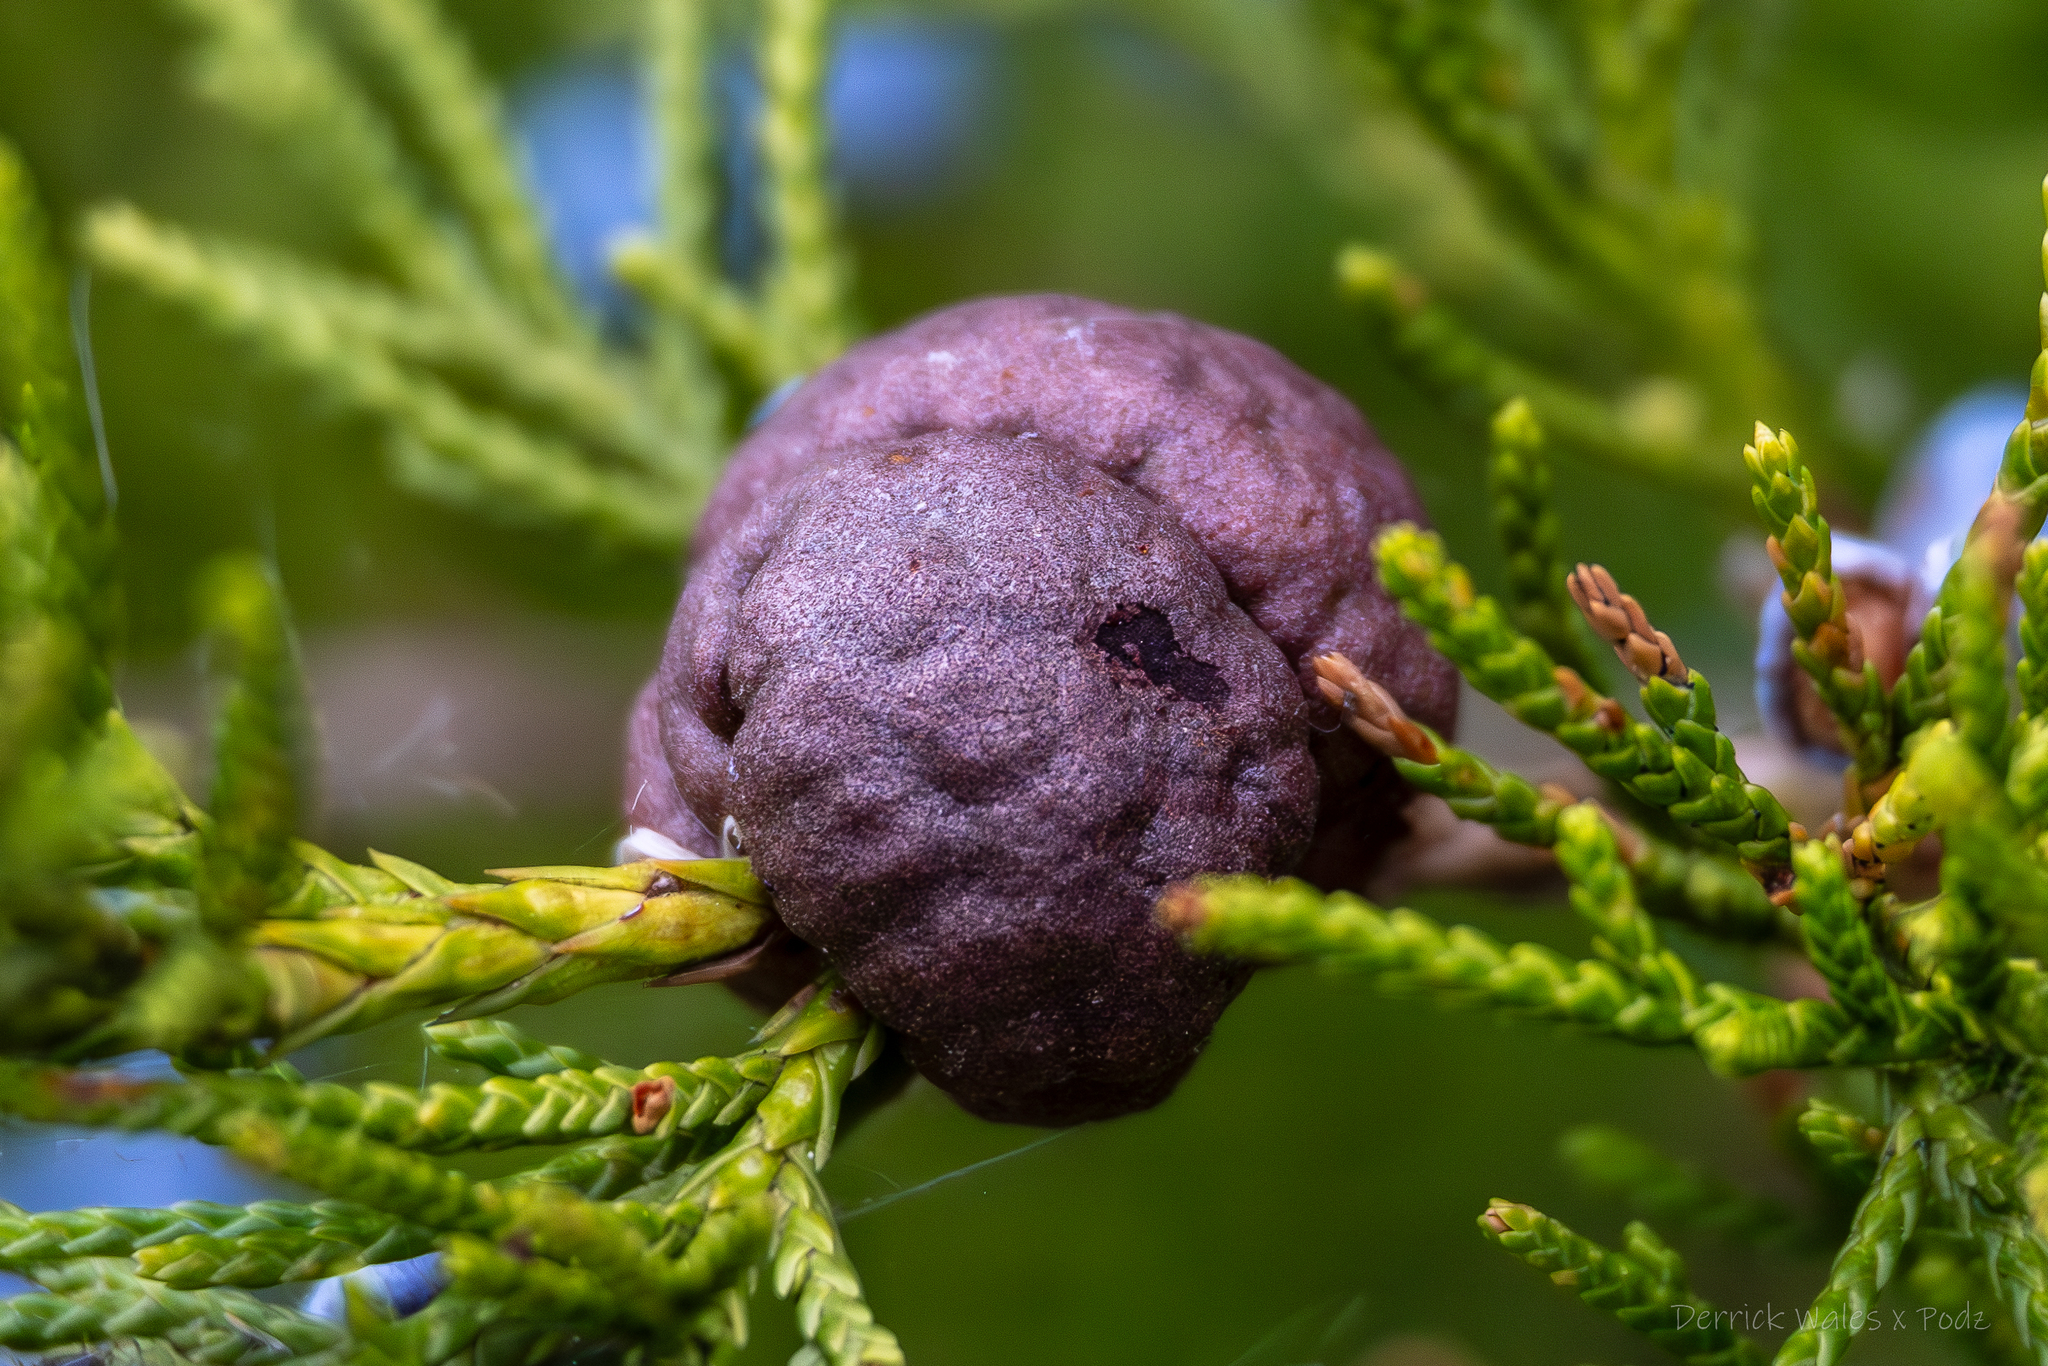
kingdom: Fungi
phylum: Basidiomycota
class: Pucciniomycetes
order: Pucciniales
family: Gymnosporangiaceae
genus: Gymnosporangium
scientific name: Gymnosporangium juniperi-virginianae
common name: Juniper-apple rust
